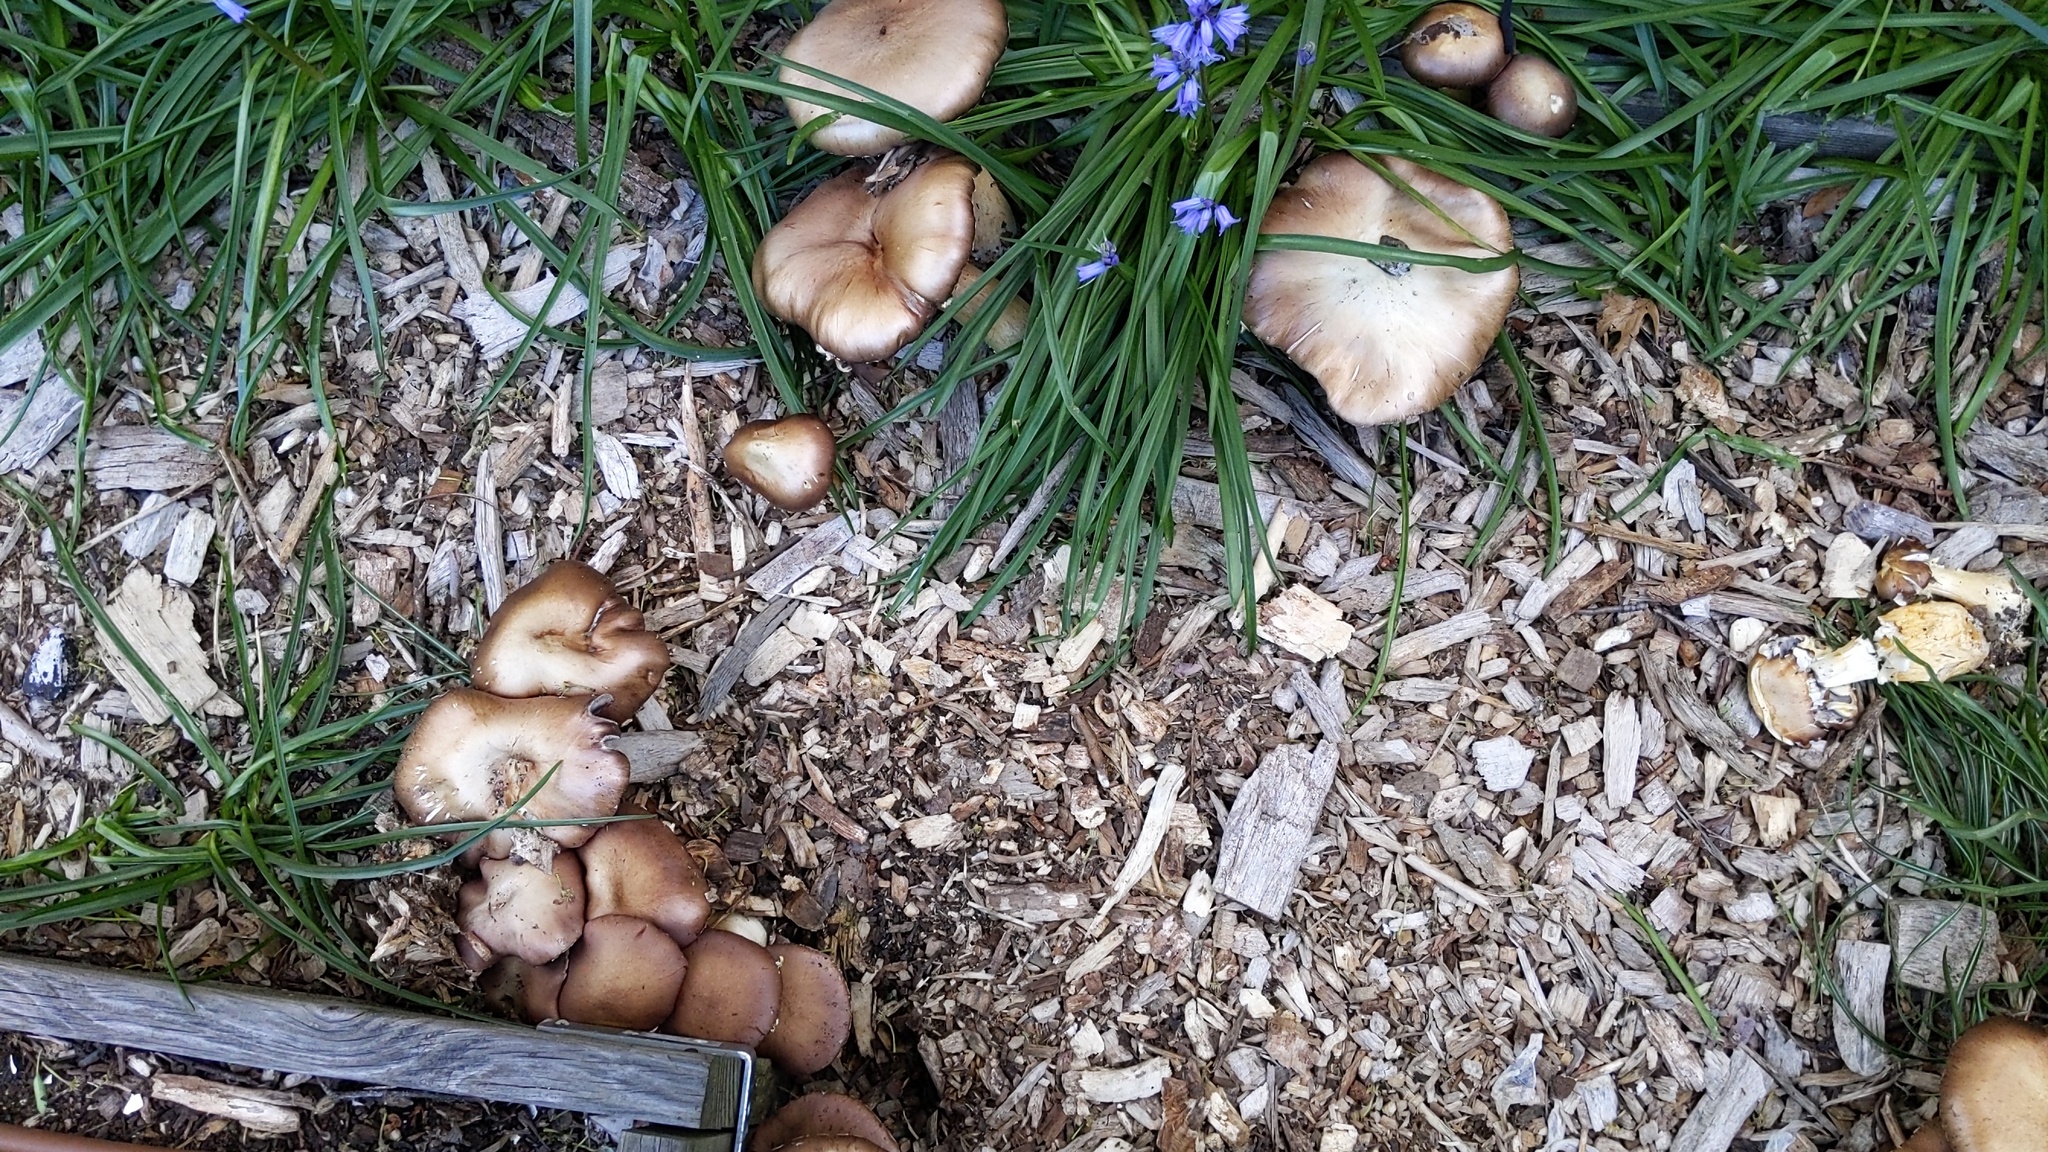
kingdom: Fungi
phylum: Basidiomycota
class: Agaricomycetes
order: Agaricales
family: Strophariaceae
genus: Stropharia
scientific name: Stropharia rugosoannulata
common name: Wine roundhead
